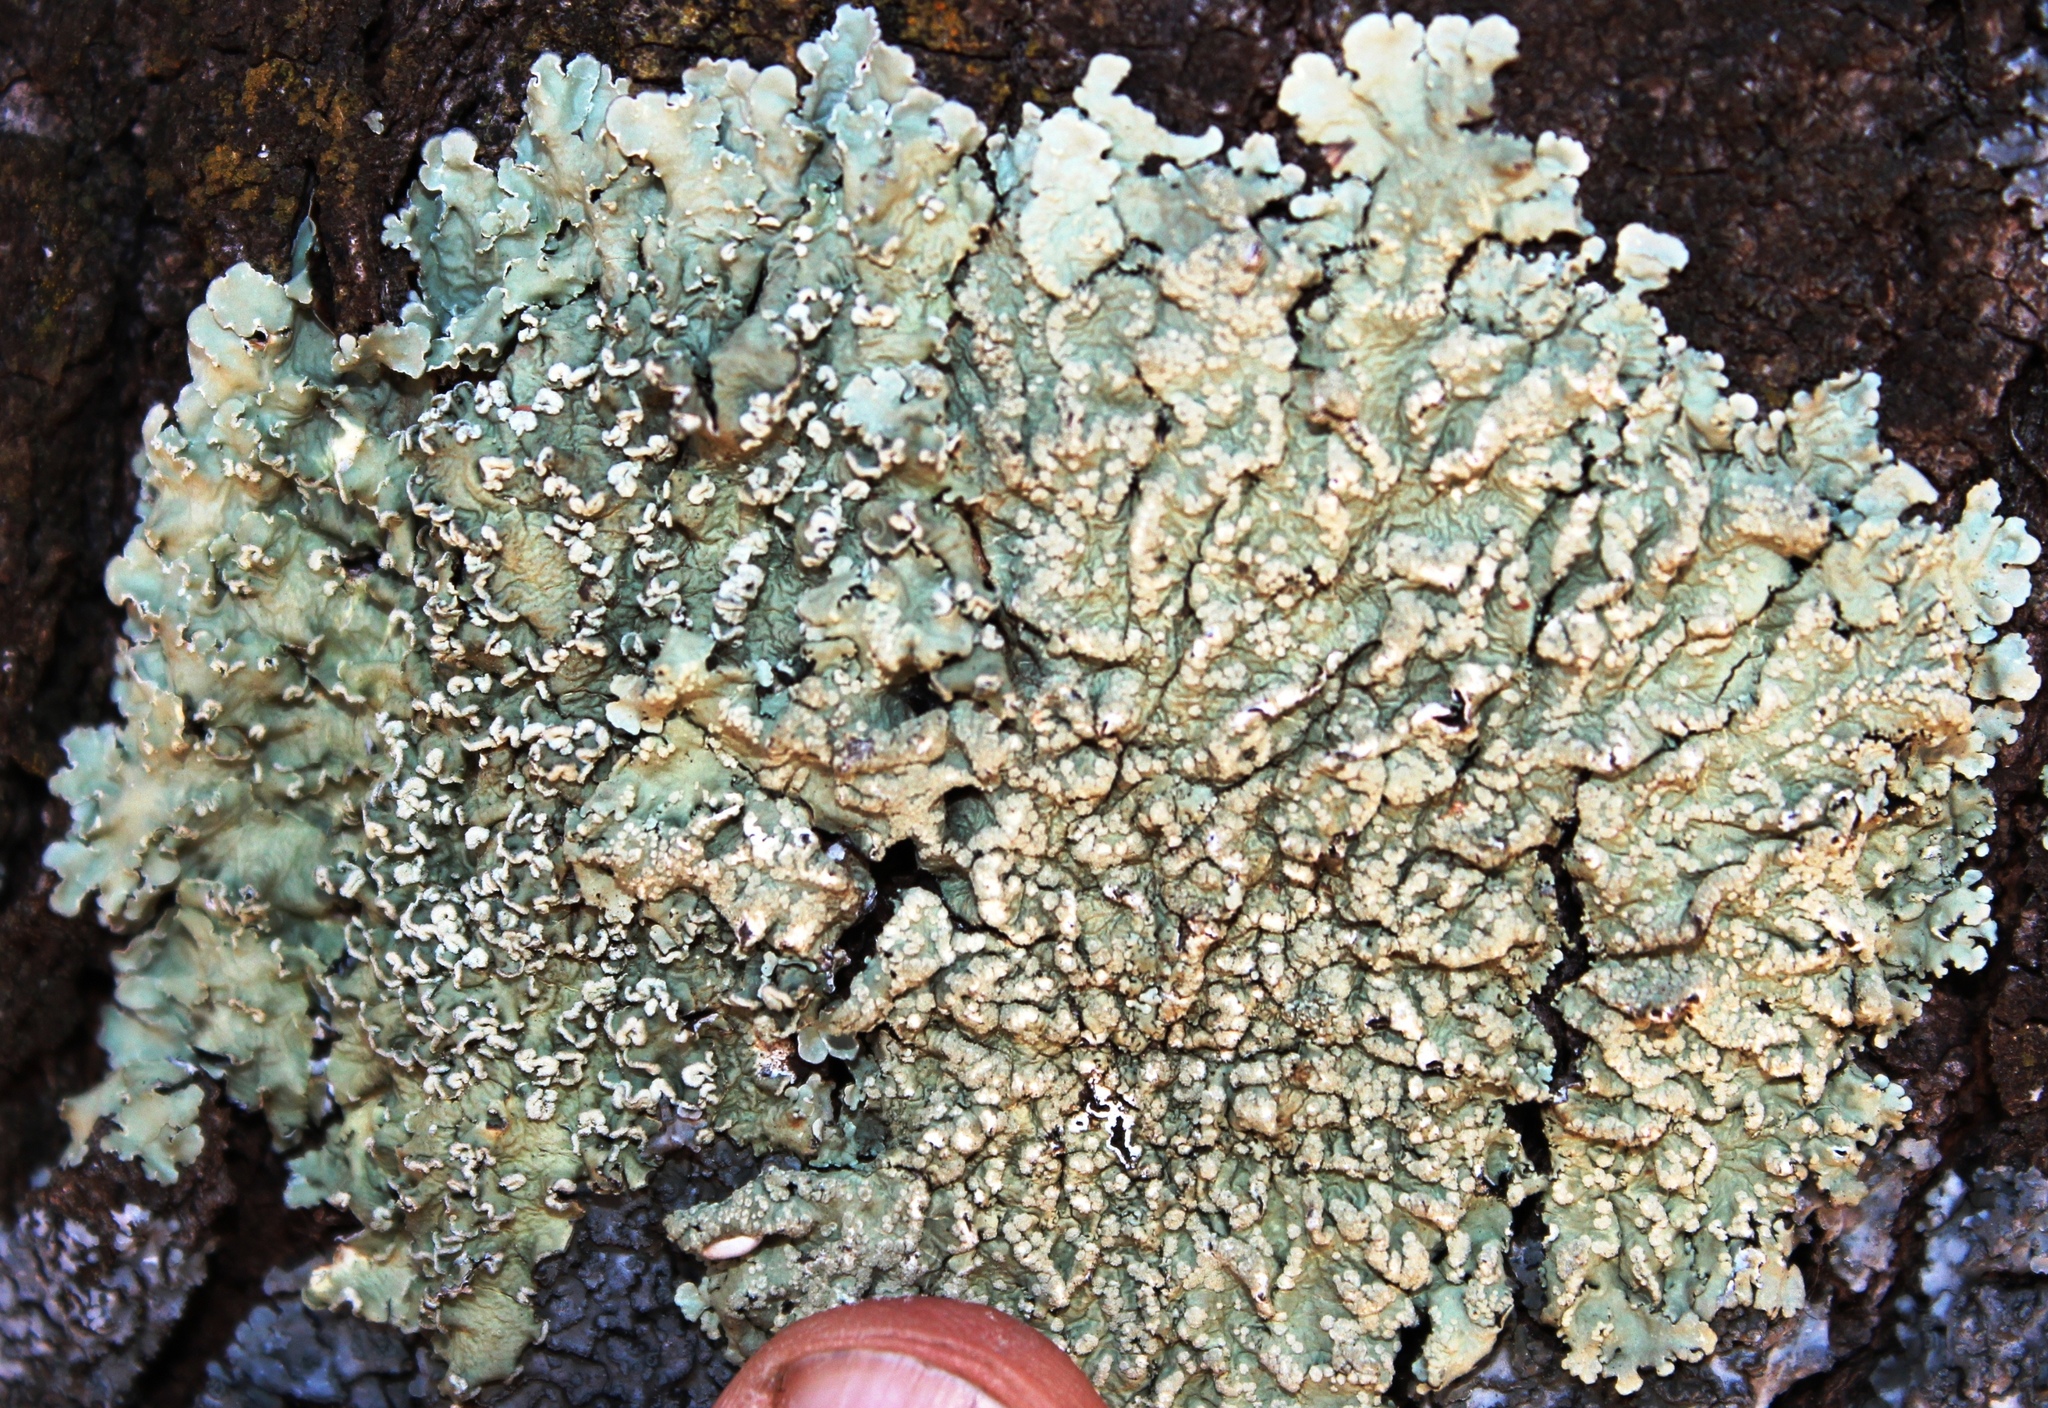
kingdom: Fungi
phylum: Ascomycota
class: Lecanoromycetes
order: Lecanorales
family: Parmeliaceae
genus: Flavopunctelia
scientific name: Flavopunctelia soredica
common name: Powder-edged speckled greenshield
